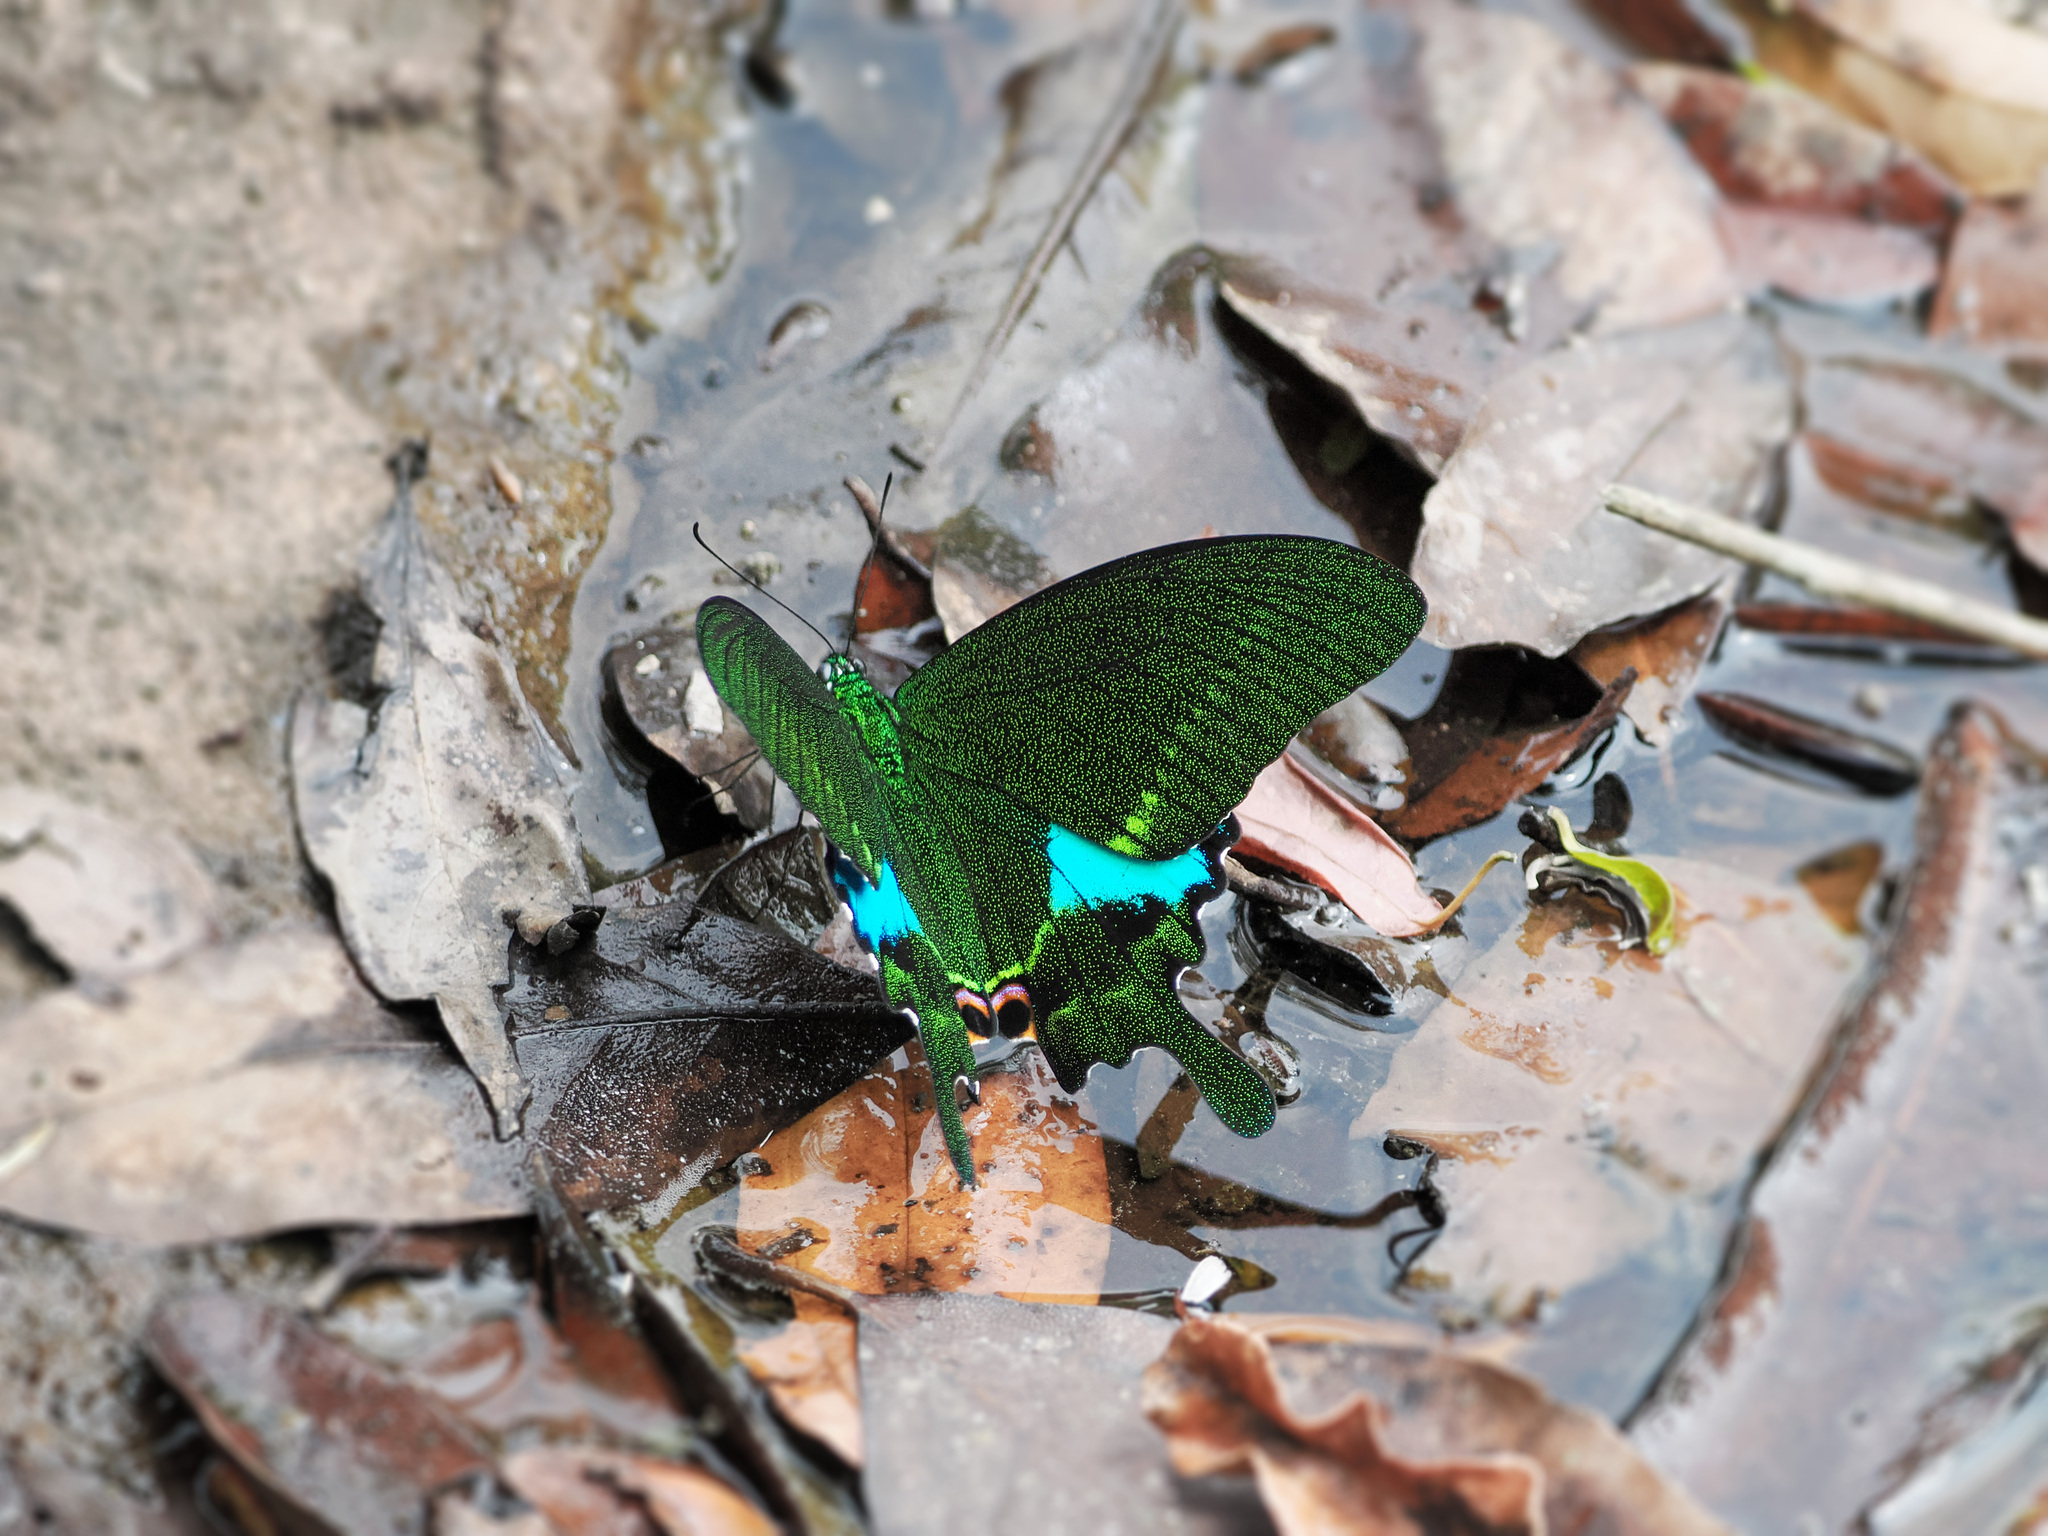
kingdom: Animalia
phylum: Arthropoda
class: Insecta
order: Lepidoptera
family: Papilionidae
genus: Papilio
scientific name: Papilio paris
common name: Paris peacock
